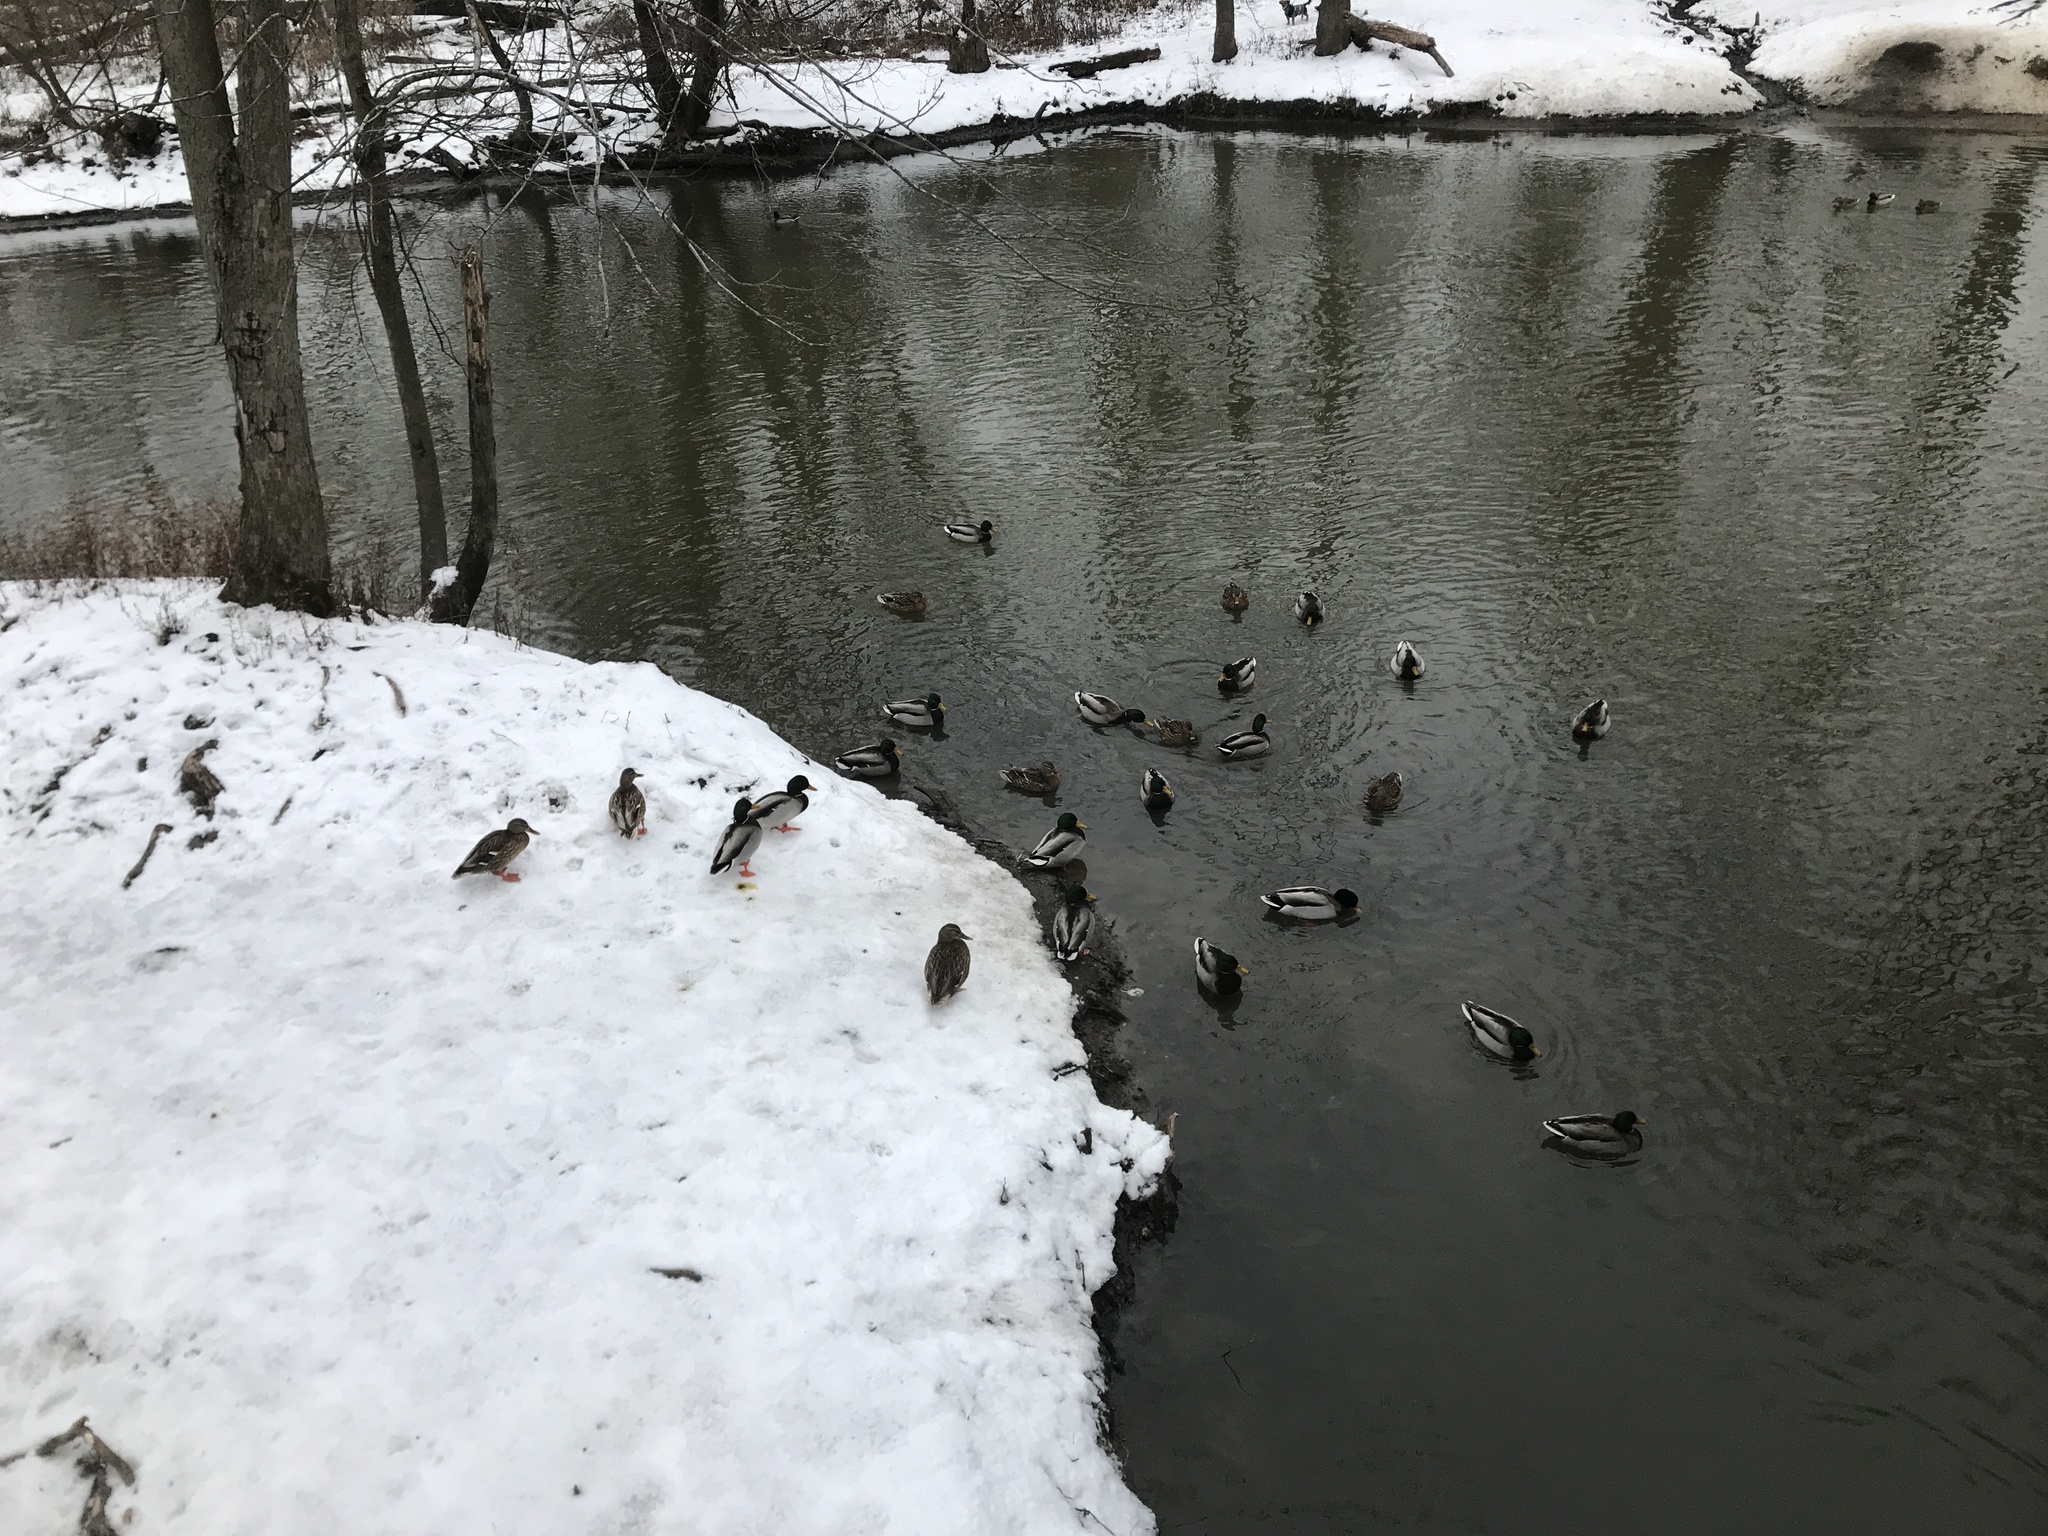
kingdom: Animalia
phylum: Chordata
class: Aves
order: Anseriformes
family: Anatidae
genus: Anas
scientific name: Anas platyrhynchos
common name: Mallard
